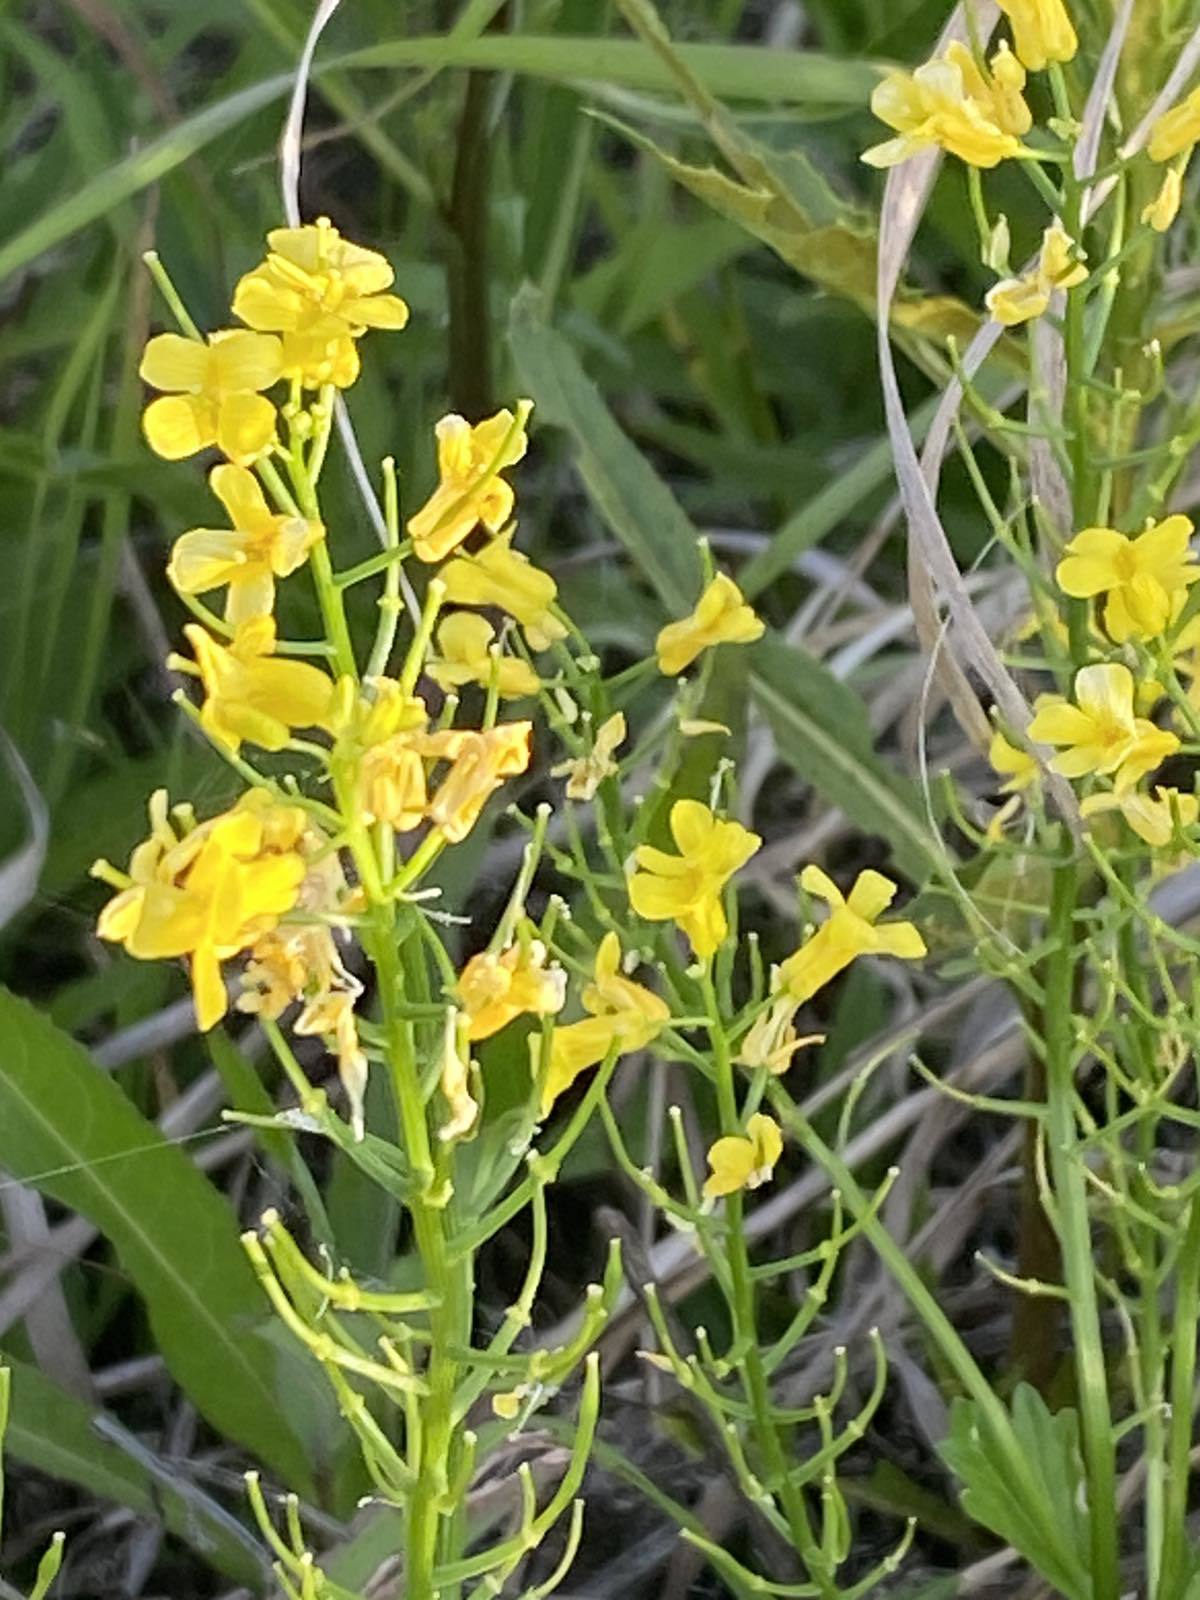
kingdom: Plantae
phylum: Tracheophyta
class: Magnoliopsida
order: Brassicales
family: Brassicaceae
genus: Barbarea
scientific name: Barbarea vulgaris
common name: Cressy-greens
